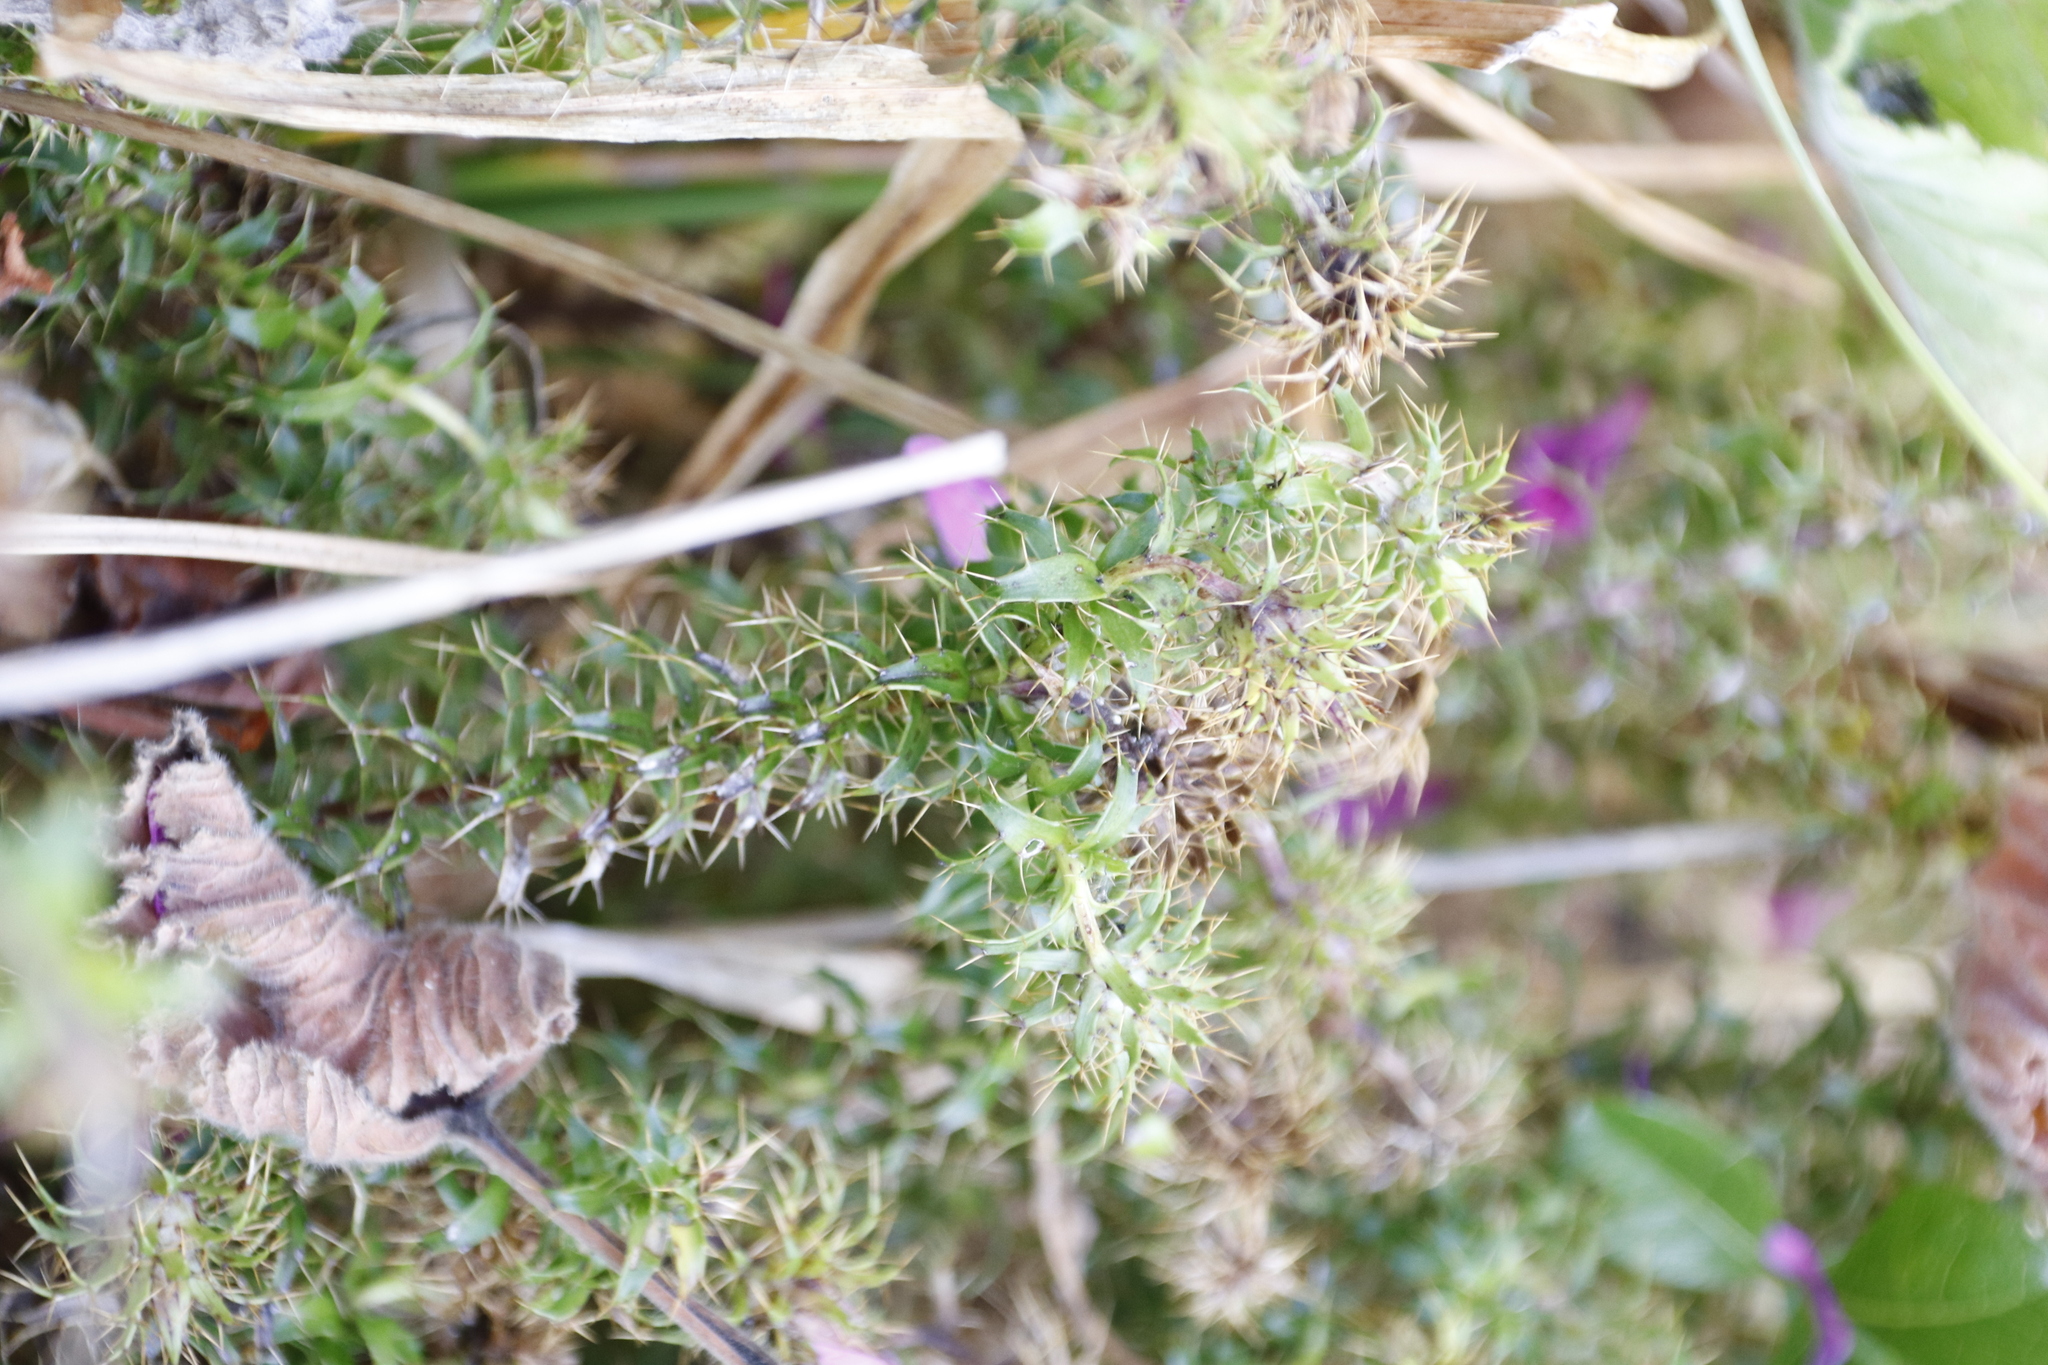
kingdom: Plantae
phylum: Tracheophyta
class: Magnoliopsida
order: Asterales
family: Asteraceae
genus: Cullumia
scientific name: Cullumia setosa
